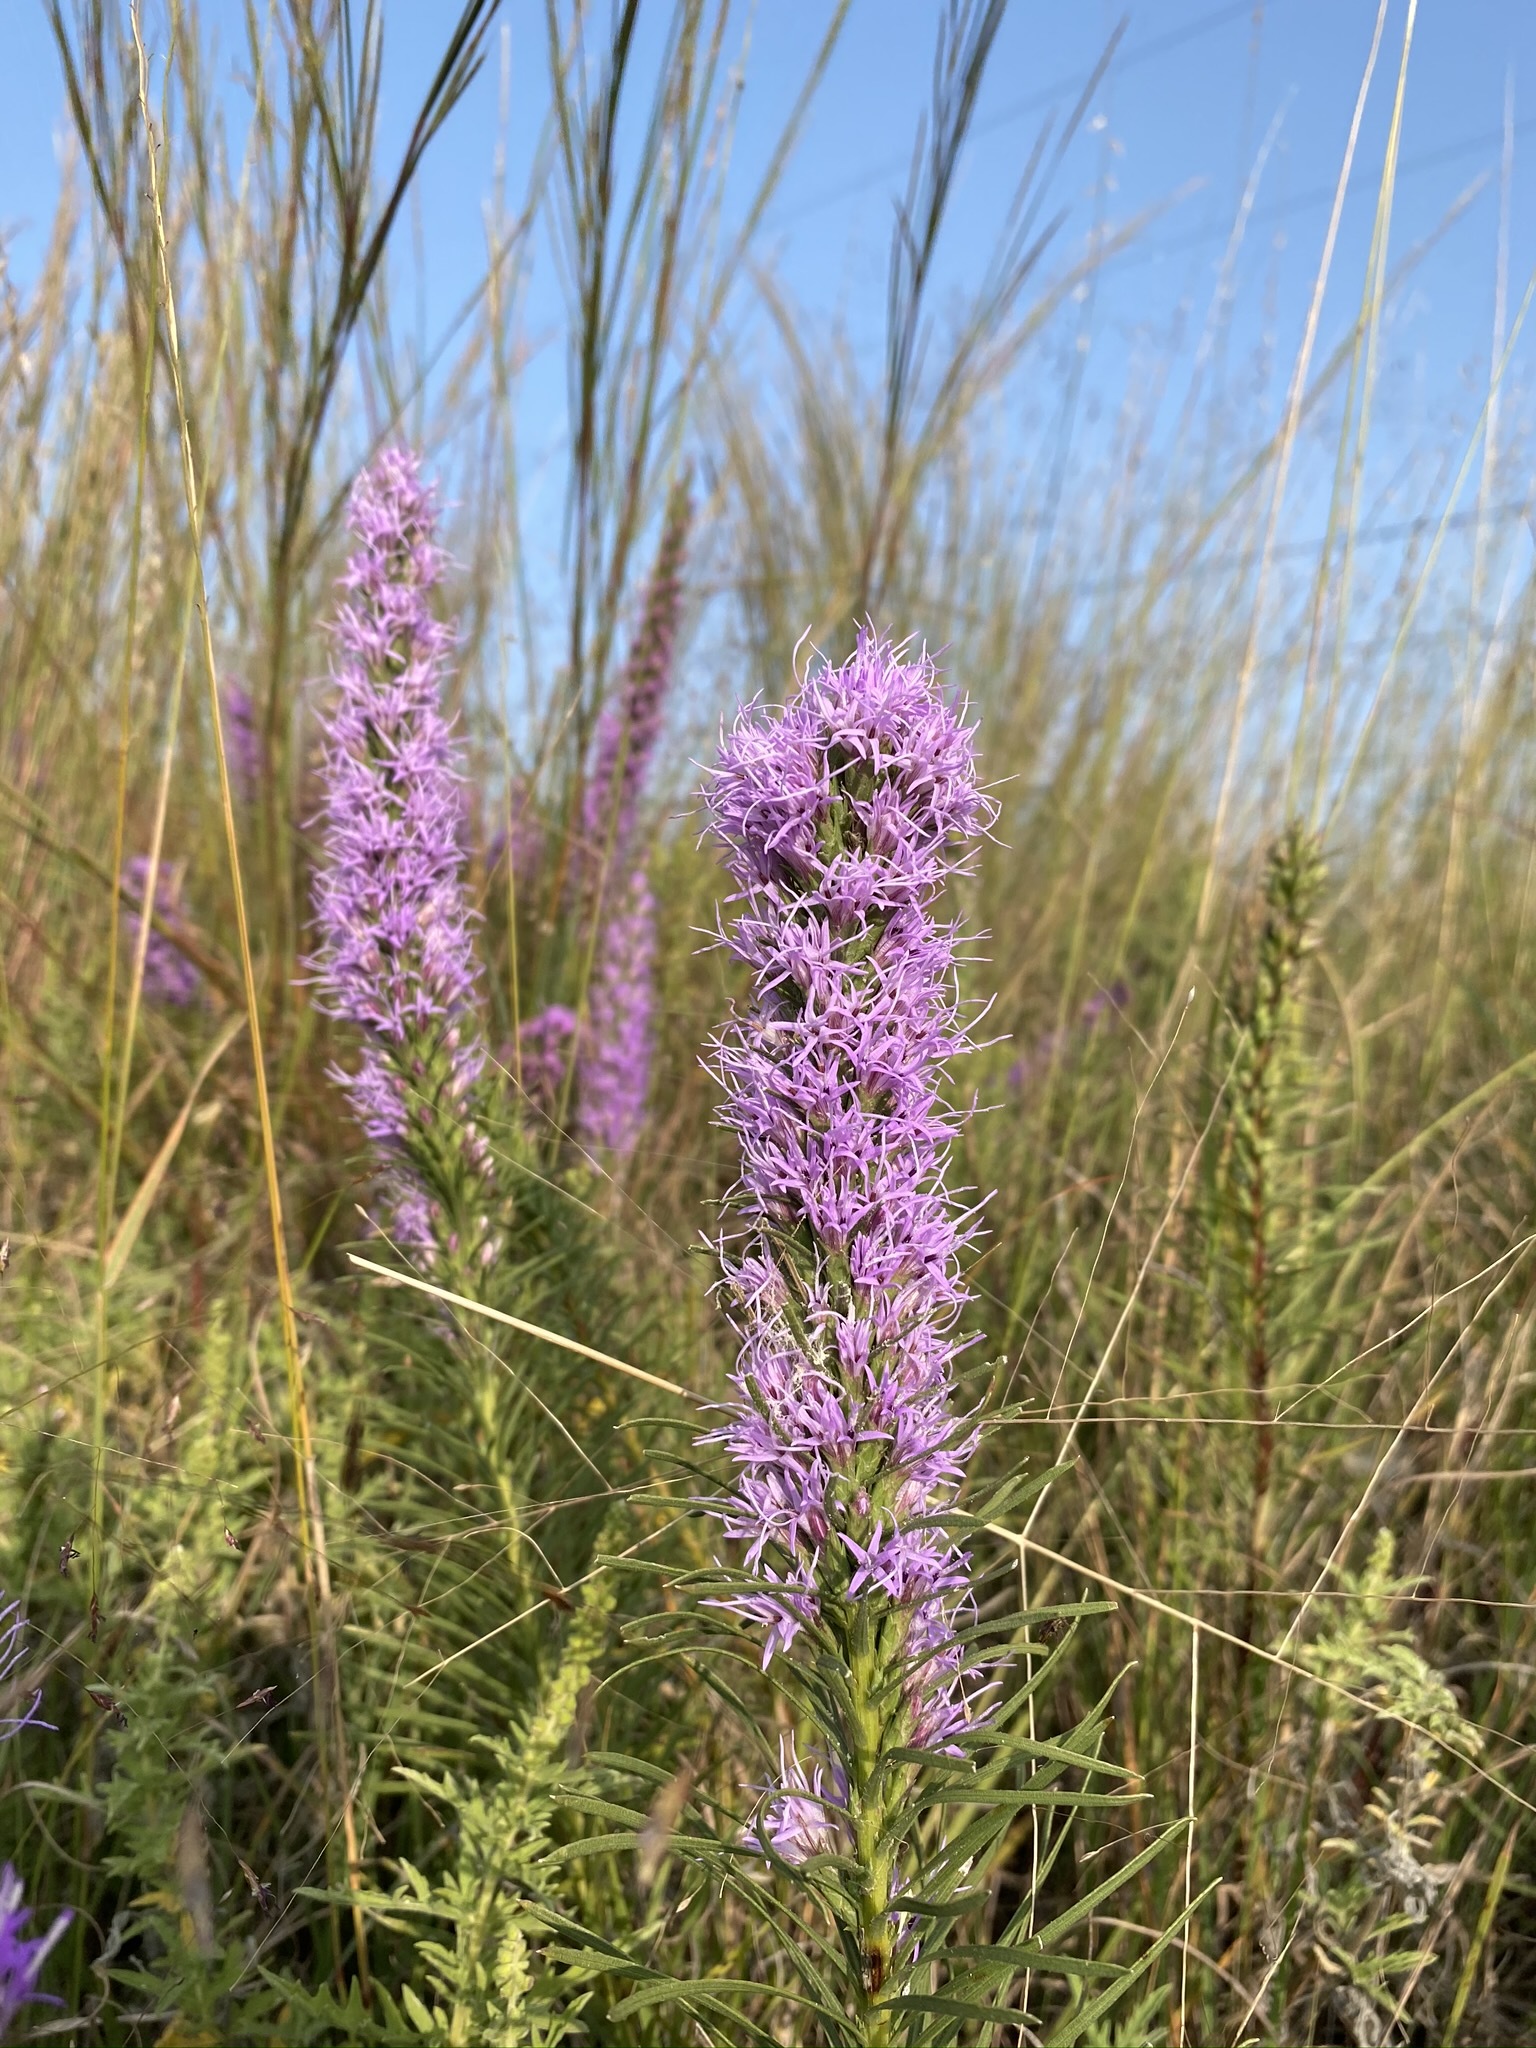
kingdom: Plantae
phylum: Tracheophyta
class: Magnoliopsida
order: Asterales
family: Asteraceae
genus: Liatris
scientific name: Liatris punctata
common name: Dotted gayfeather
